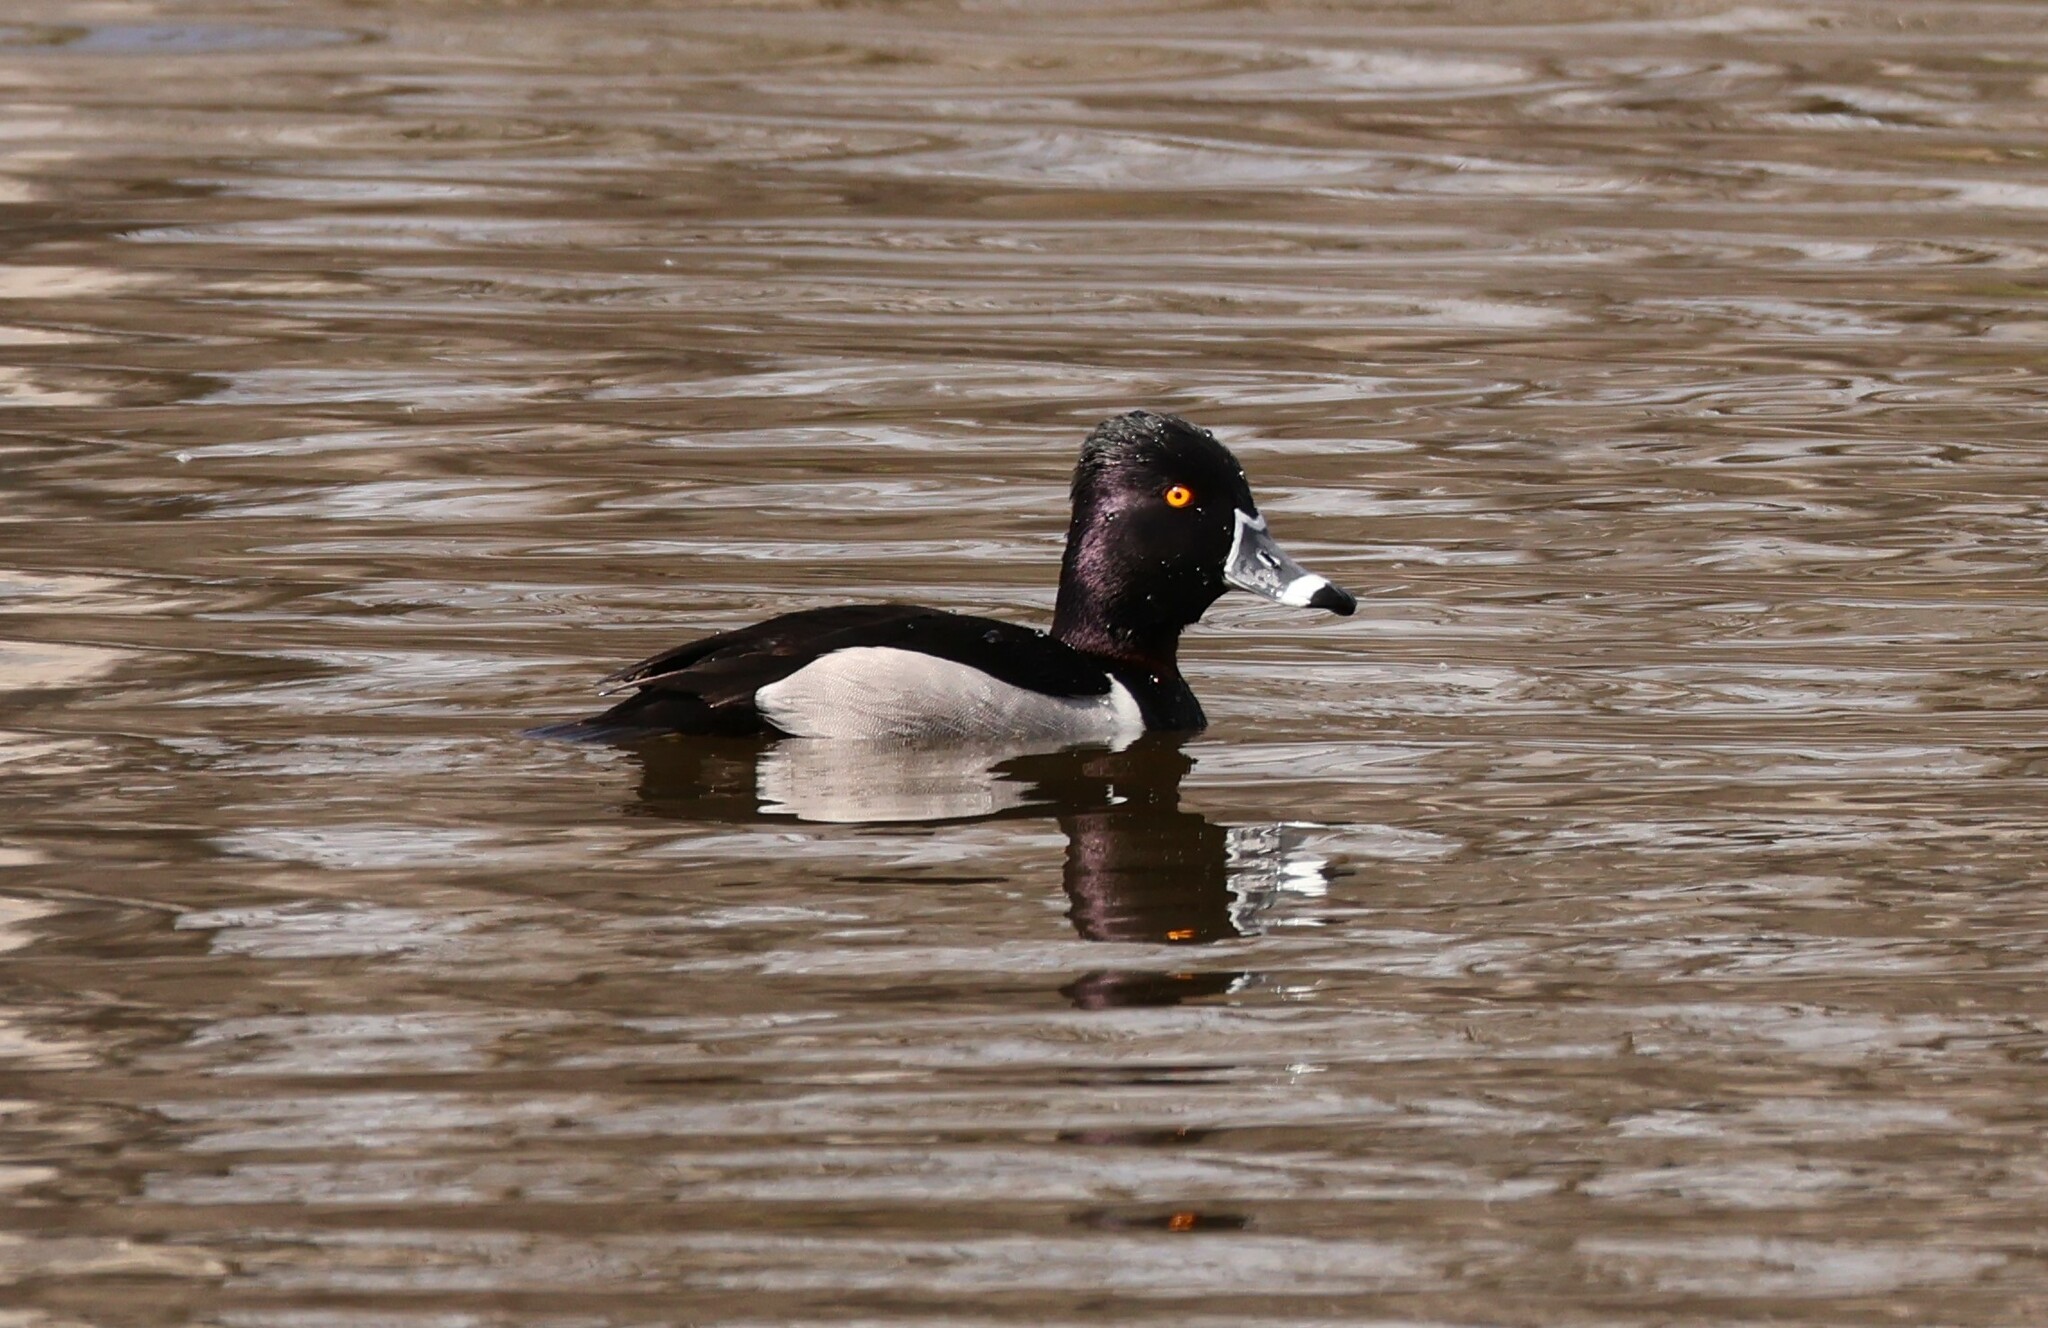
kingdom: Animalia
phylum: Chordata
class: Aves
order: Anseriformes
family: Anatidae
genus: Aythya
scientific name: Aythya collaris
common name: Ring-necked duck
